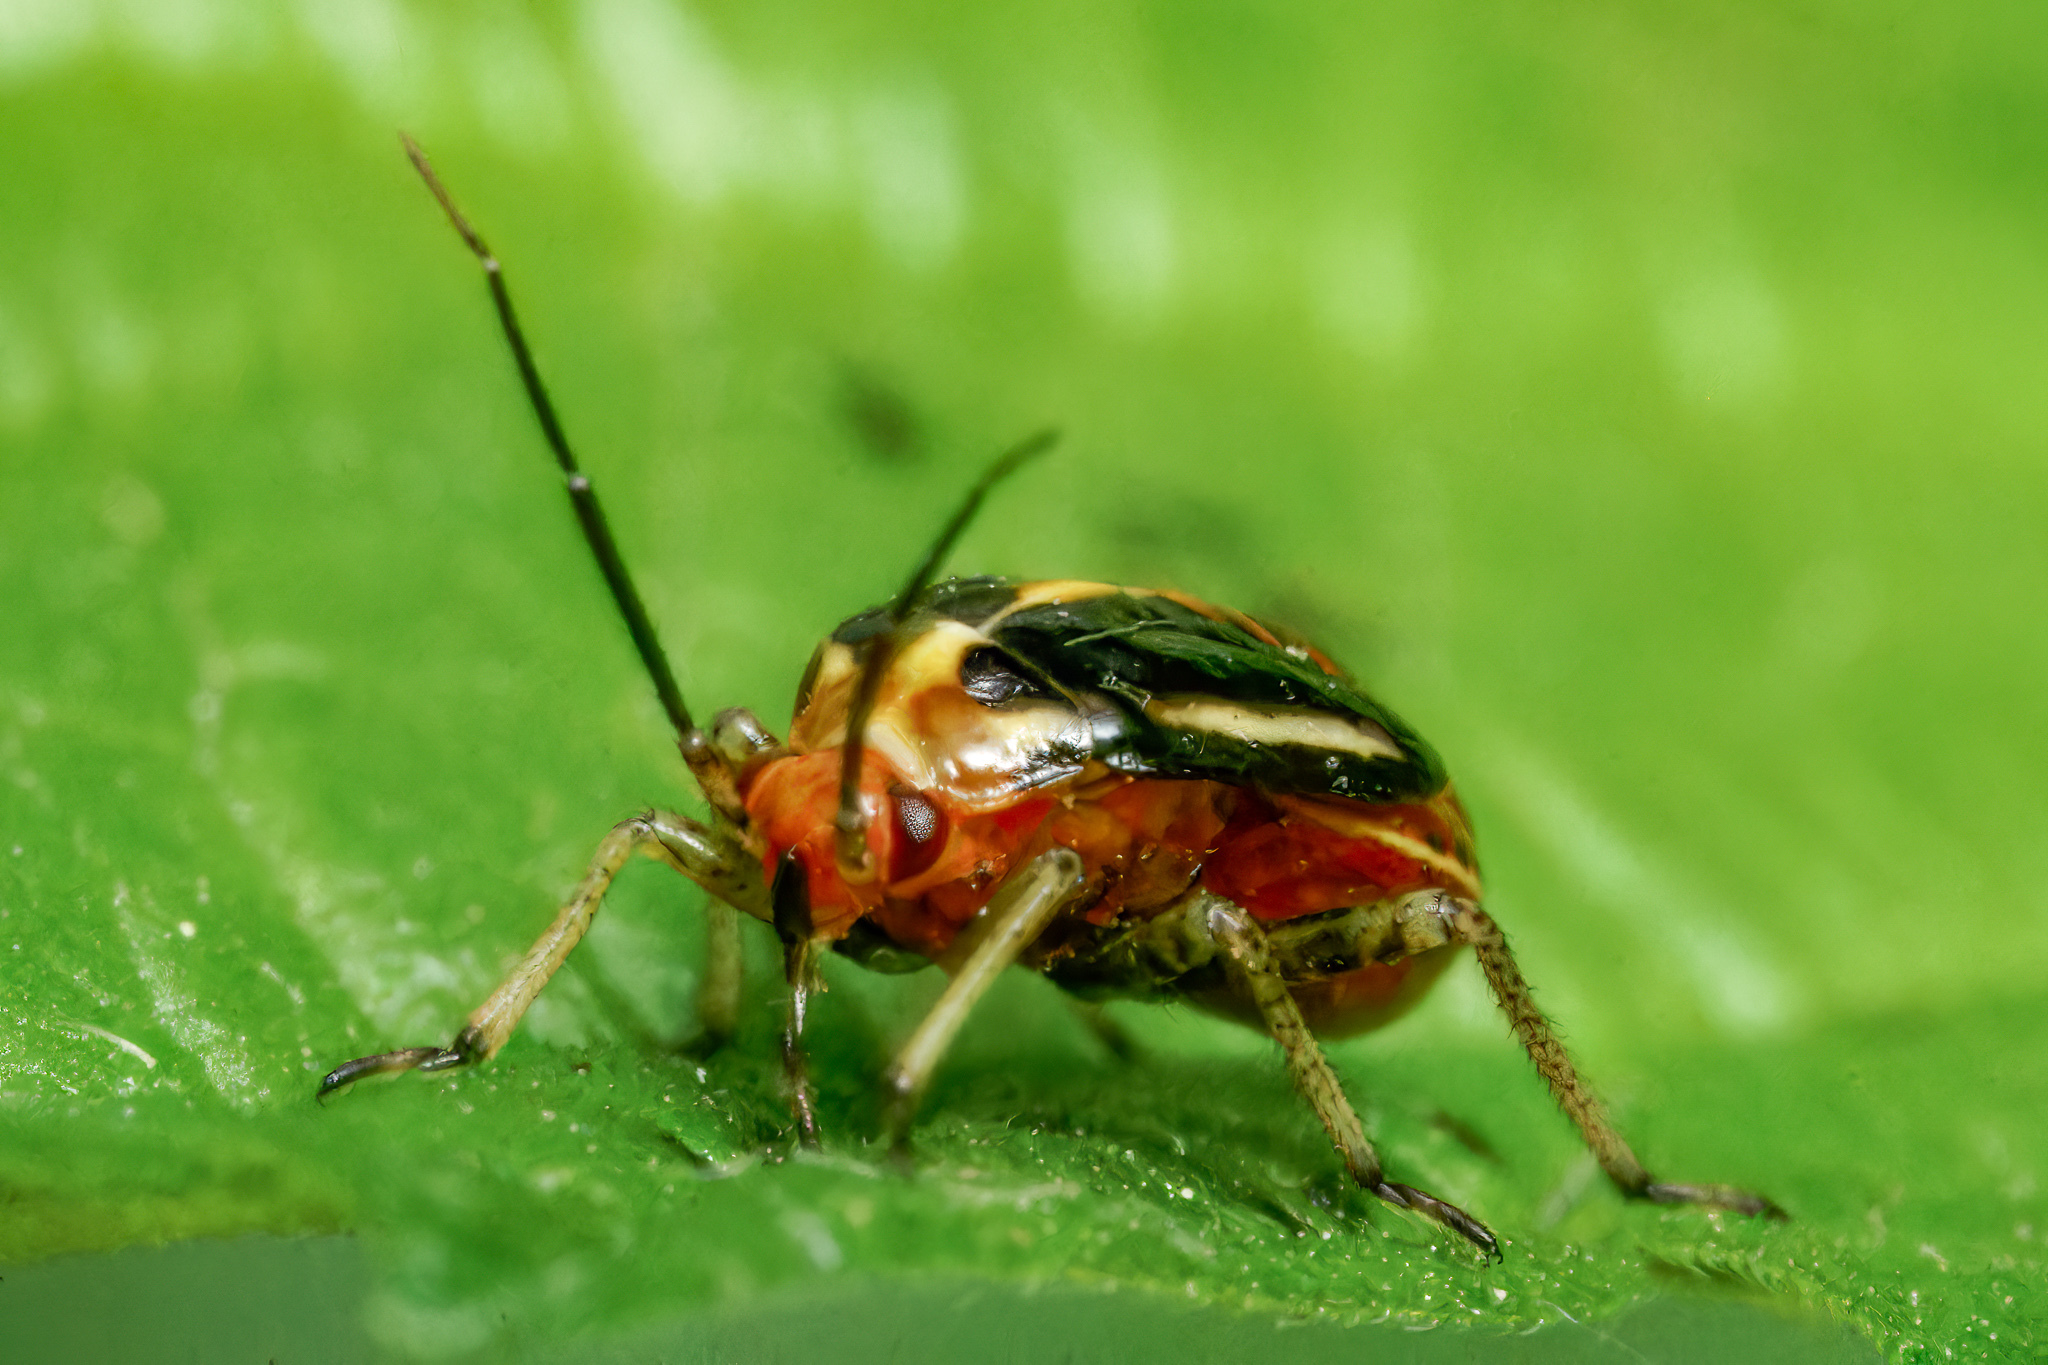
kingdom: Animalia
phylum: Arthropoda
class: Insecta
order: Hemiptera
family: Miridae
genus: Poecilocapsus
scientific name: Poecilocapsus lineatus
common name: Four-lined plant bug
